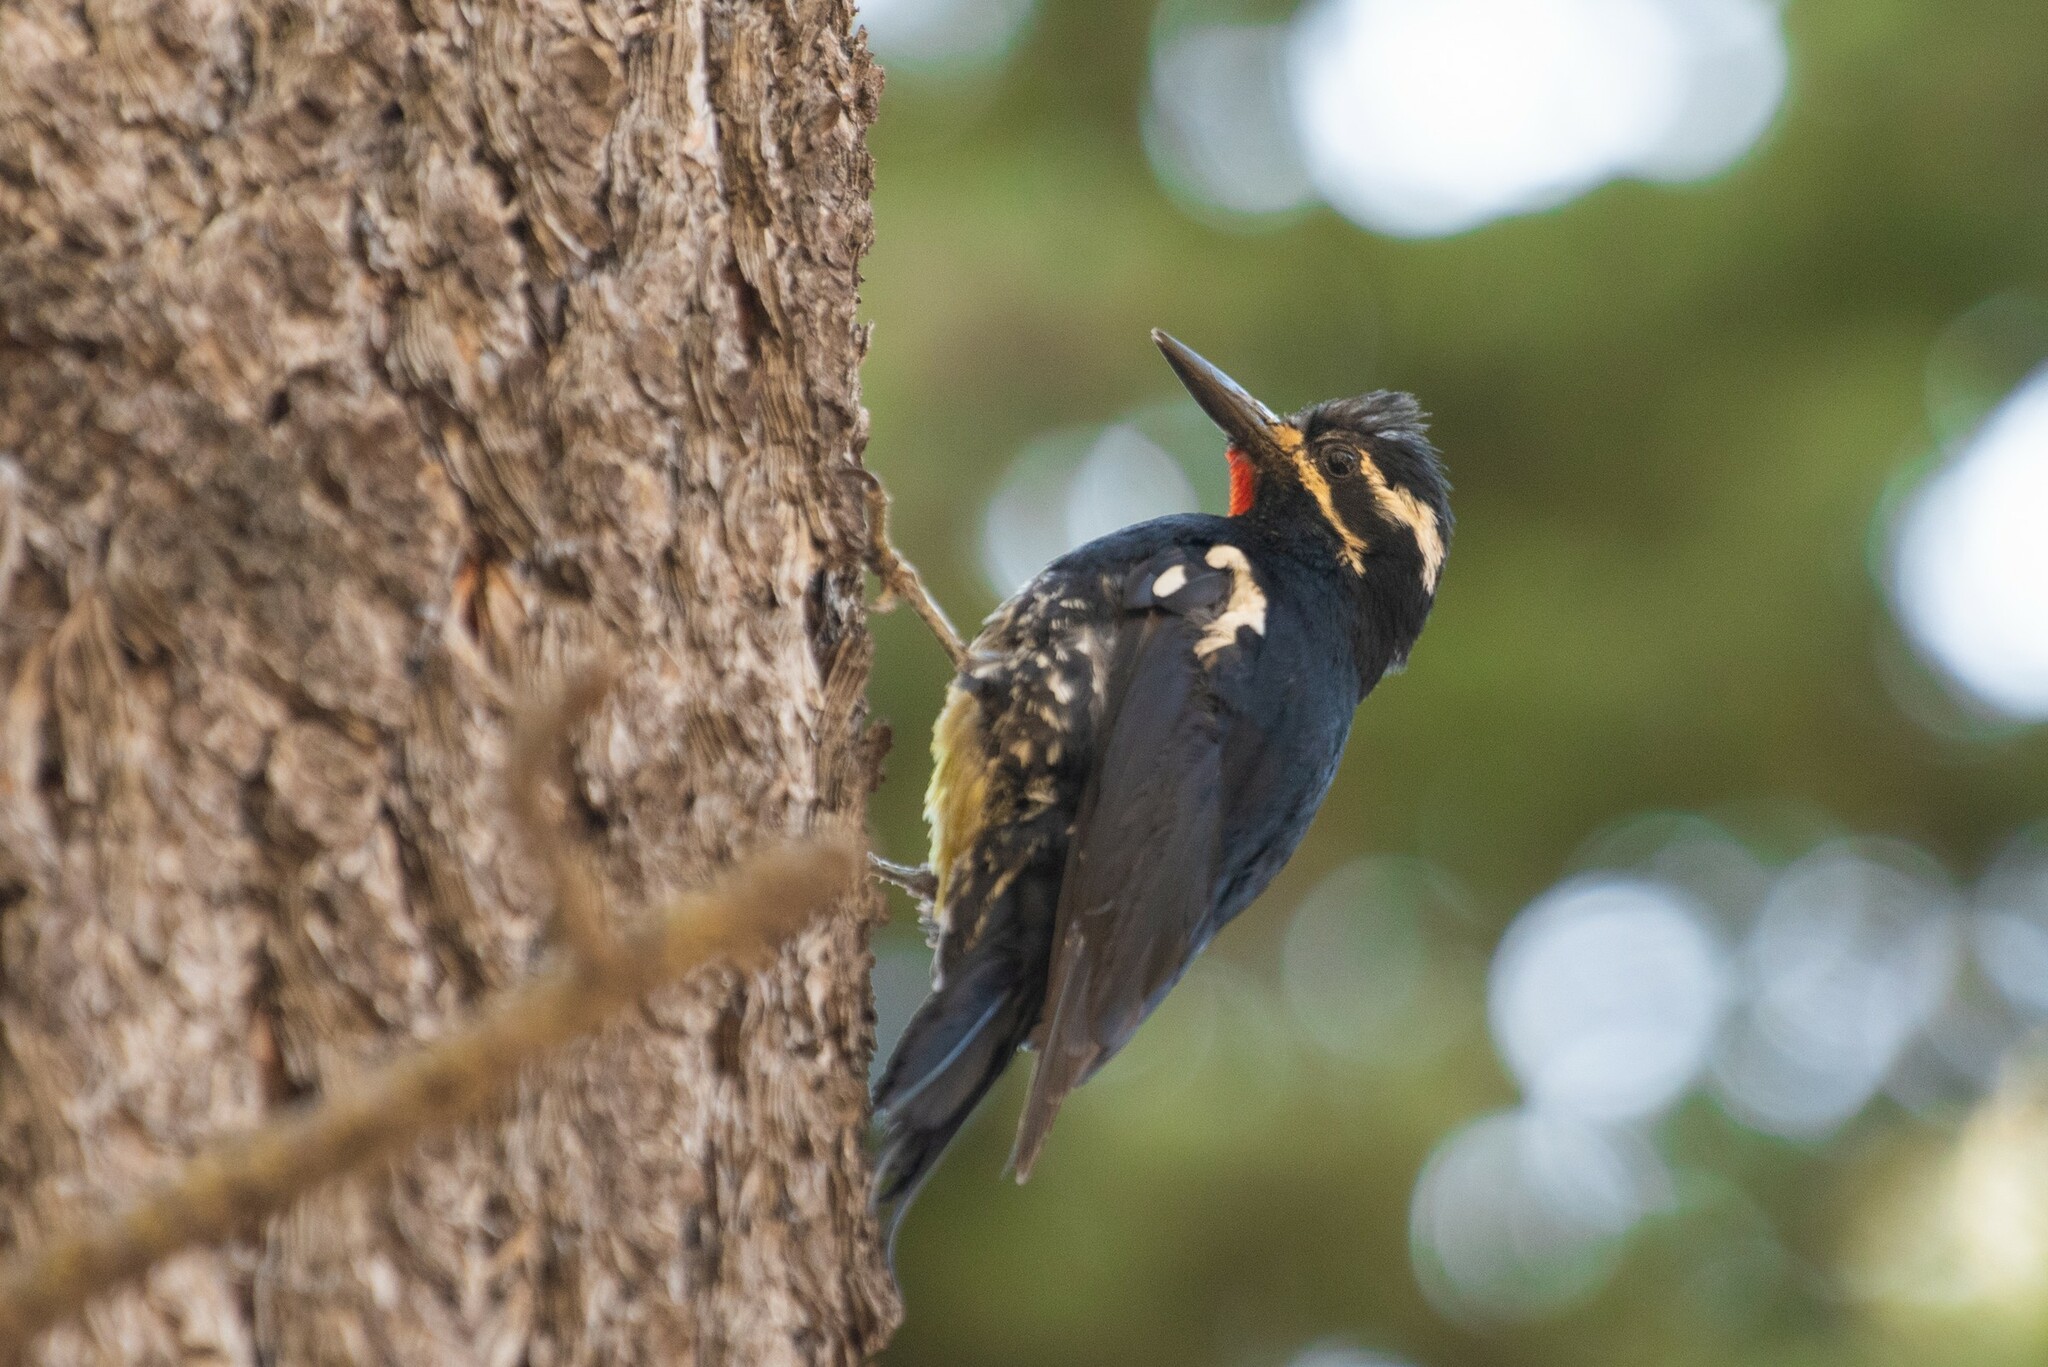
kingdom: Animalia
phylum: Chordata
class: Aves
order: Piciformes
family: Picidae
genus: Sphyrapicus
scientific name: Sphyrapicus thyroideus
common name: Williamson's sapsucker
